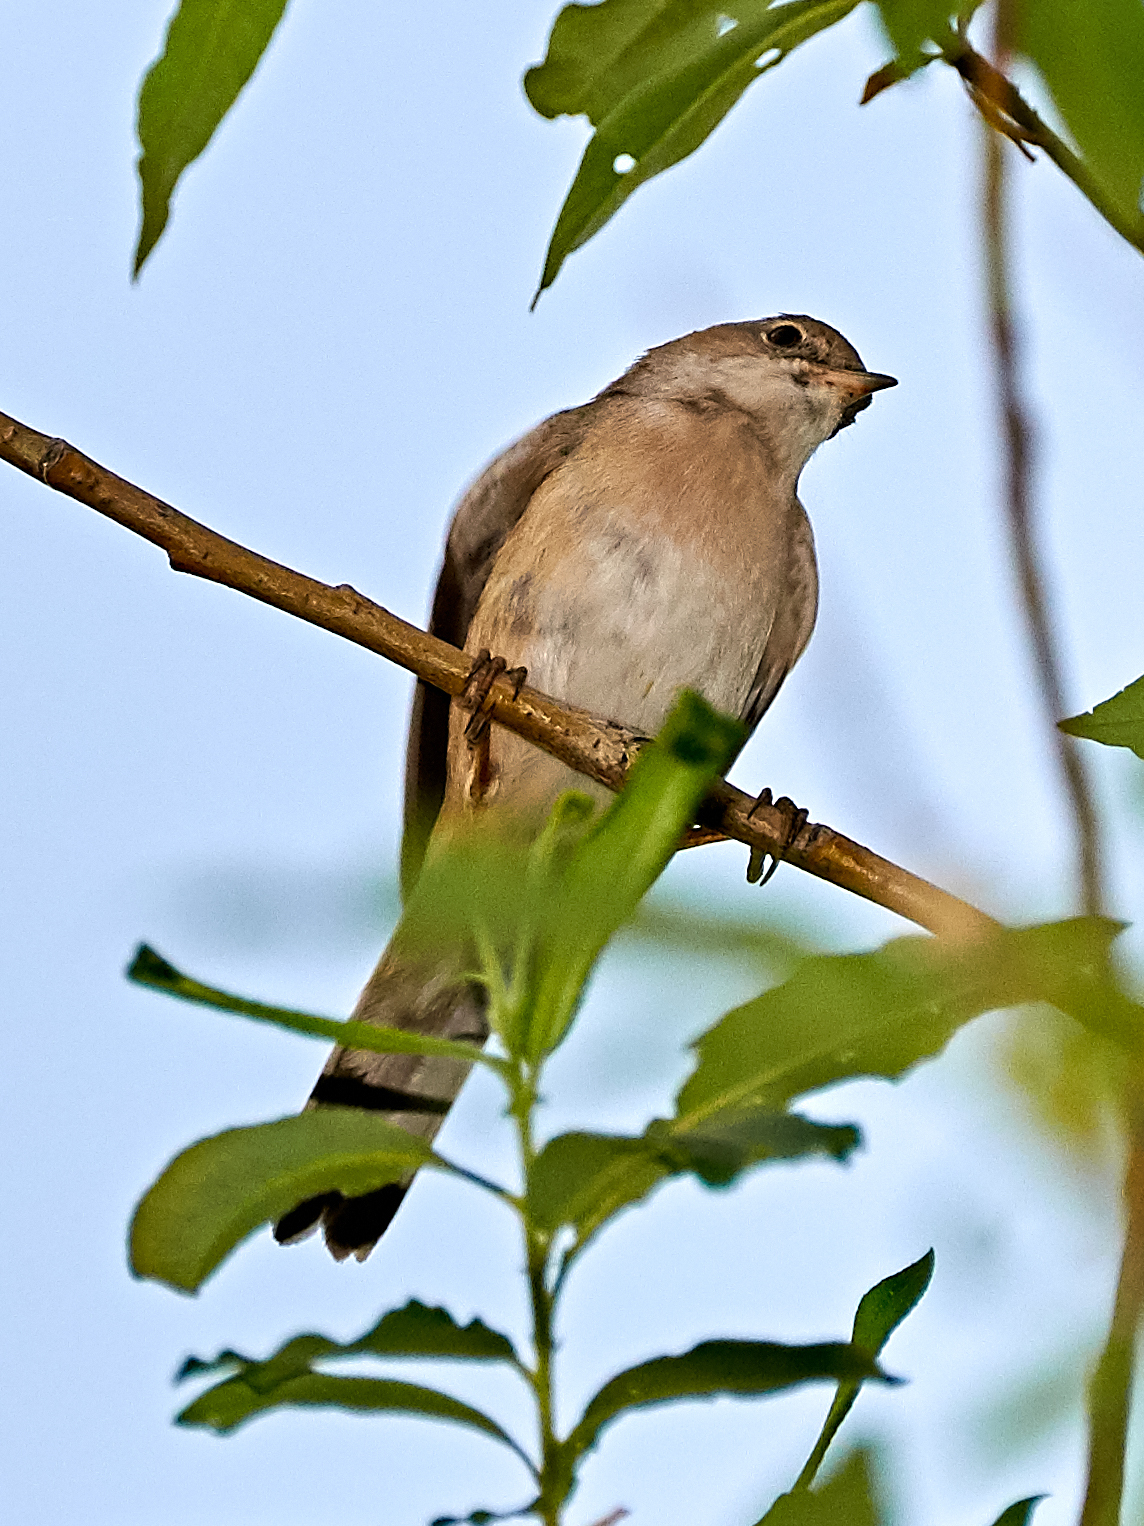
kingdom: Animalia
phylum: Chordata
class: Aves
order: Passeriformes
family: Sylviidae
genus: Sylvia
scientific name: Sylvia communis
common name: Common whitethroat
